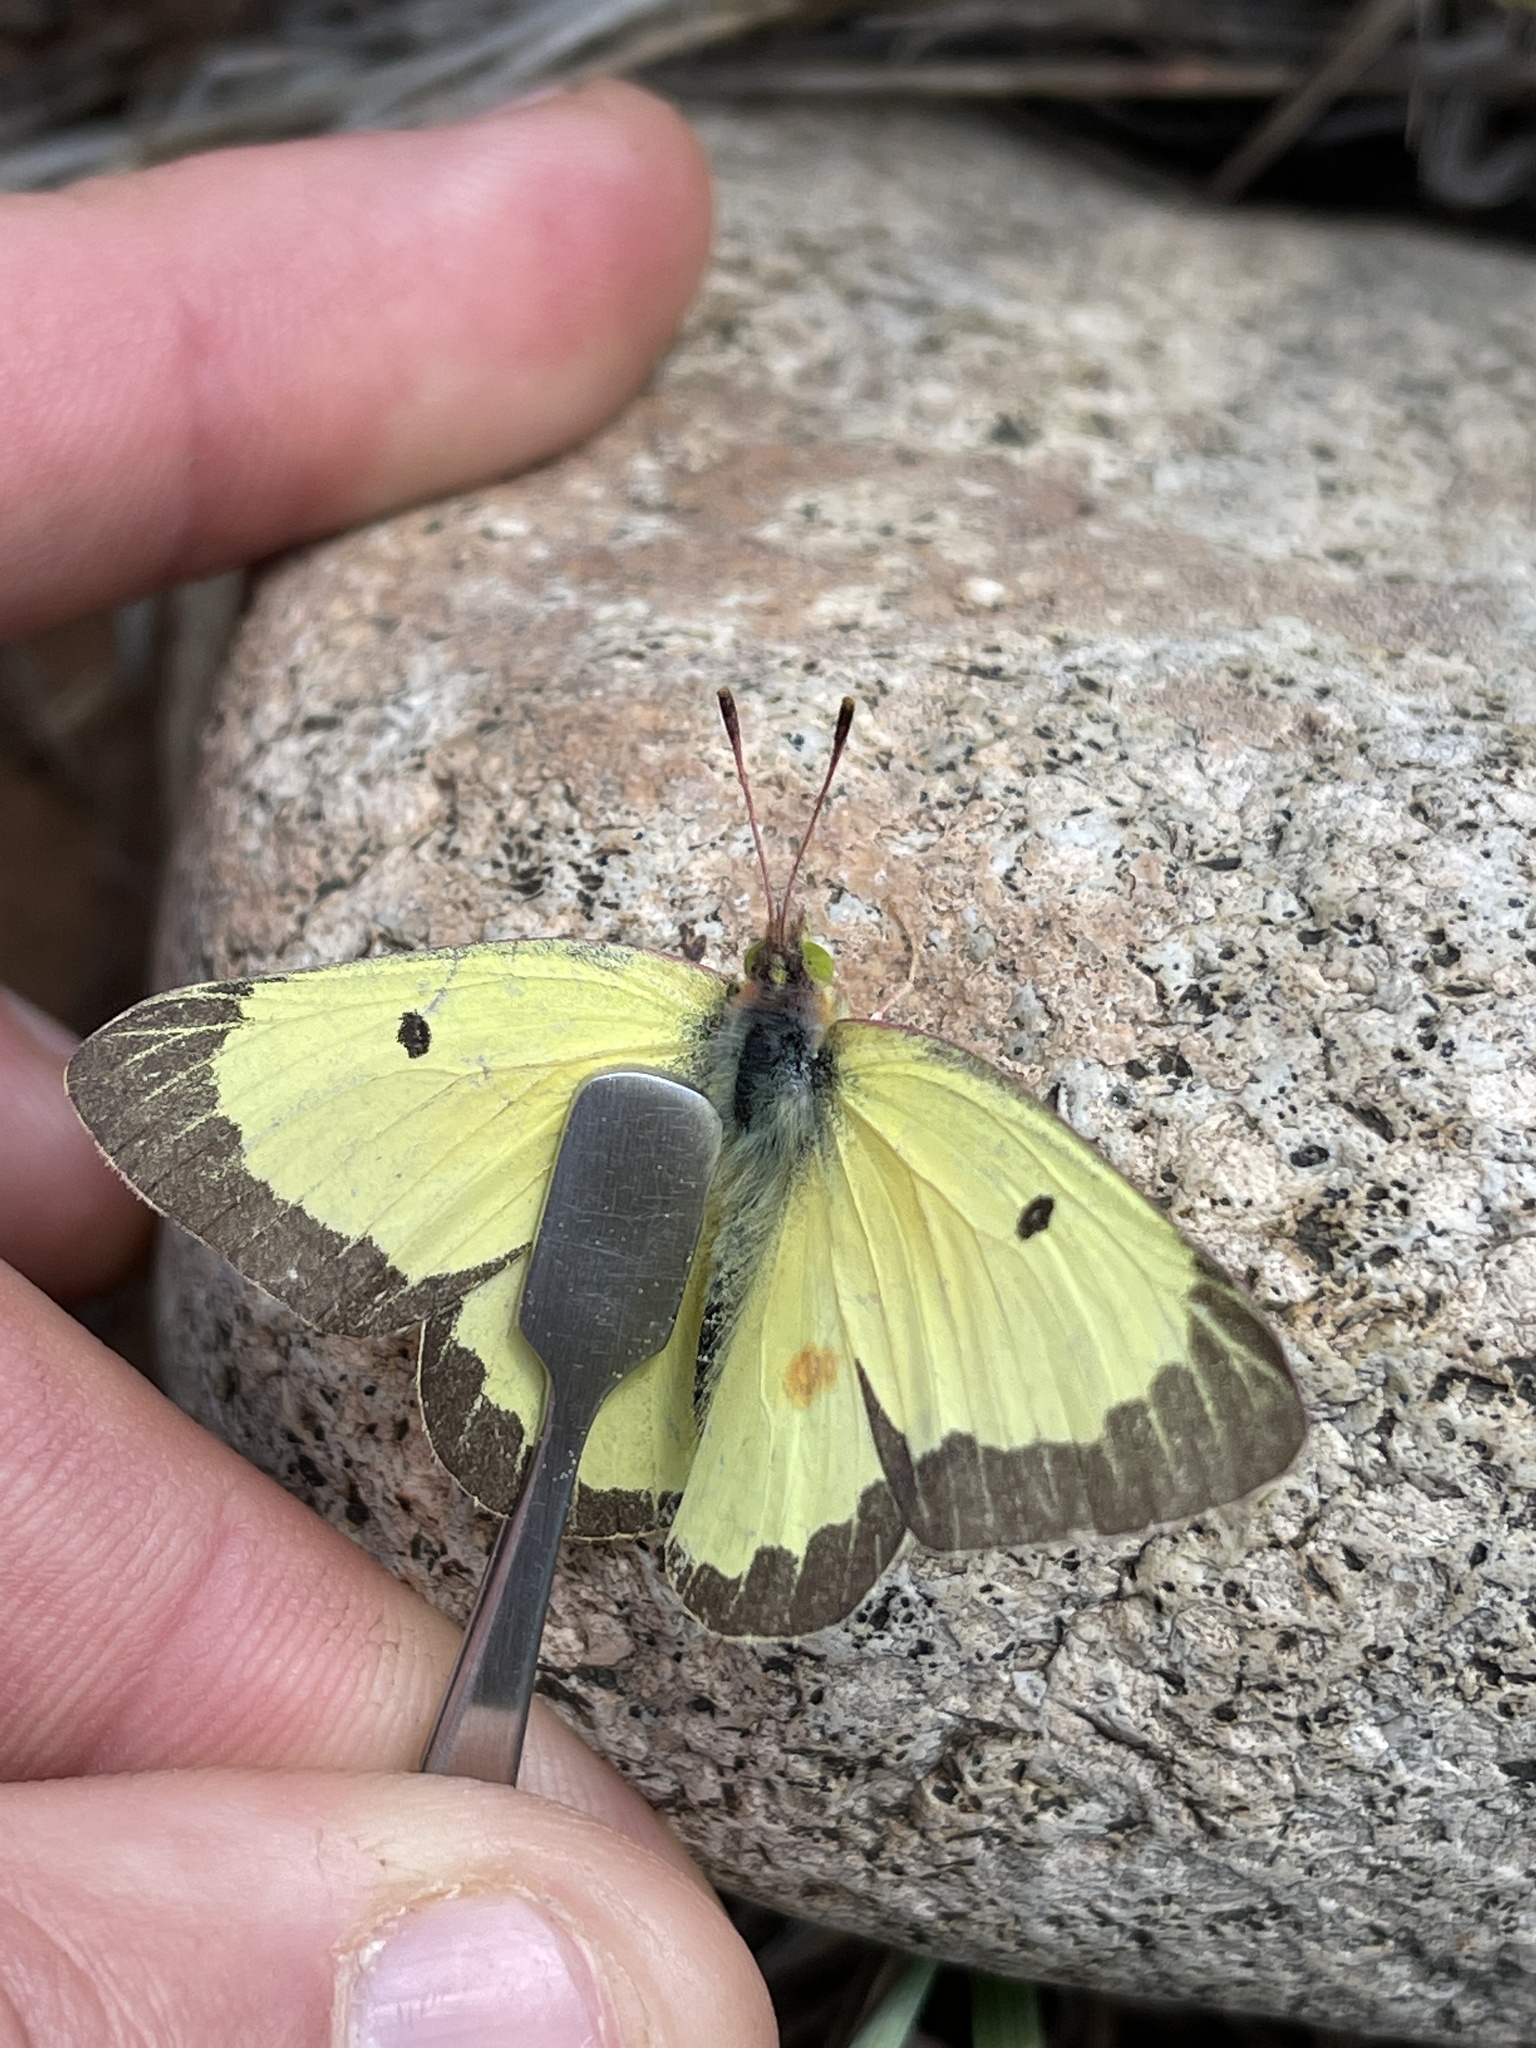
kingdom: Animalia
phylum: Arthropoda
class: Insecta
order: Lepidoptera
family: Pieridae
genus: Colias
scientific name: Colias philodice
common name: Clouded sulphur
